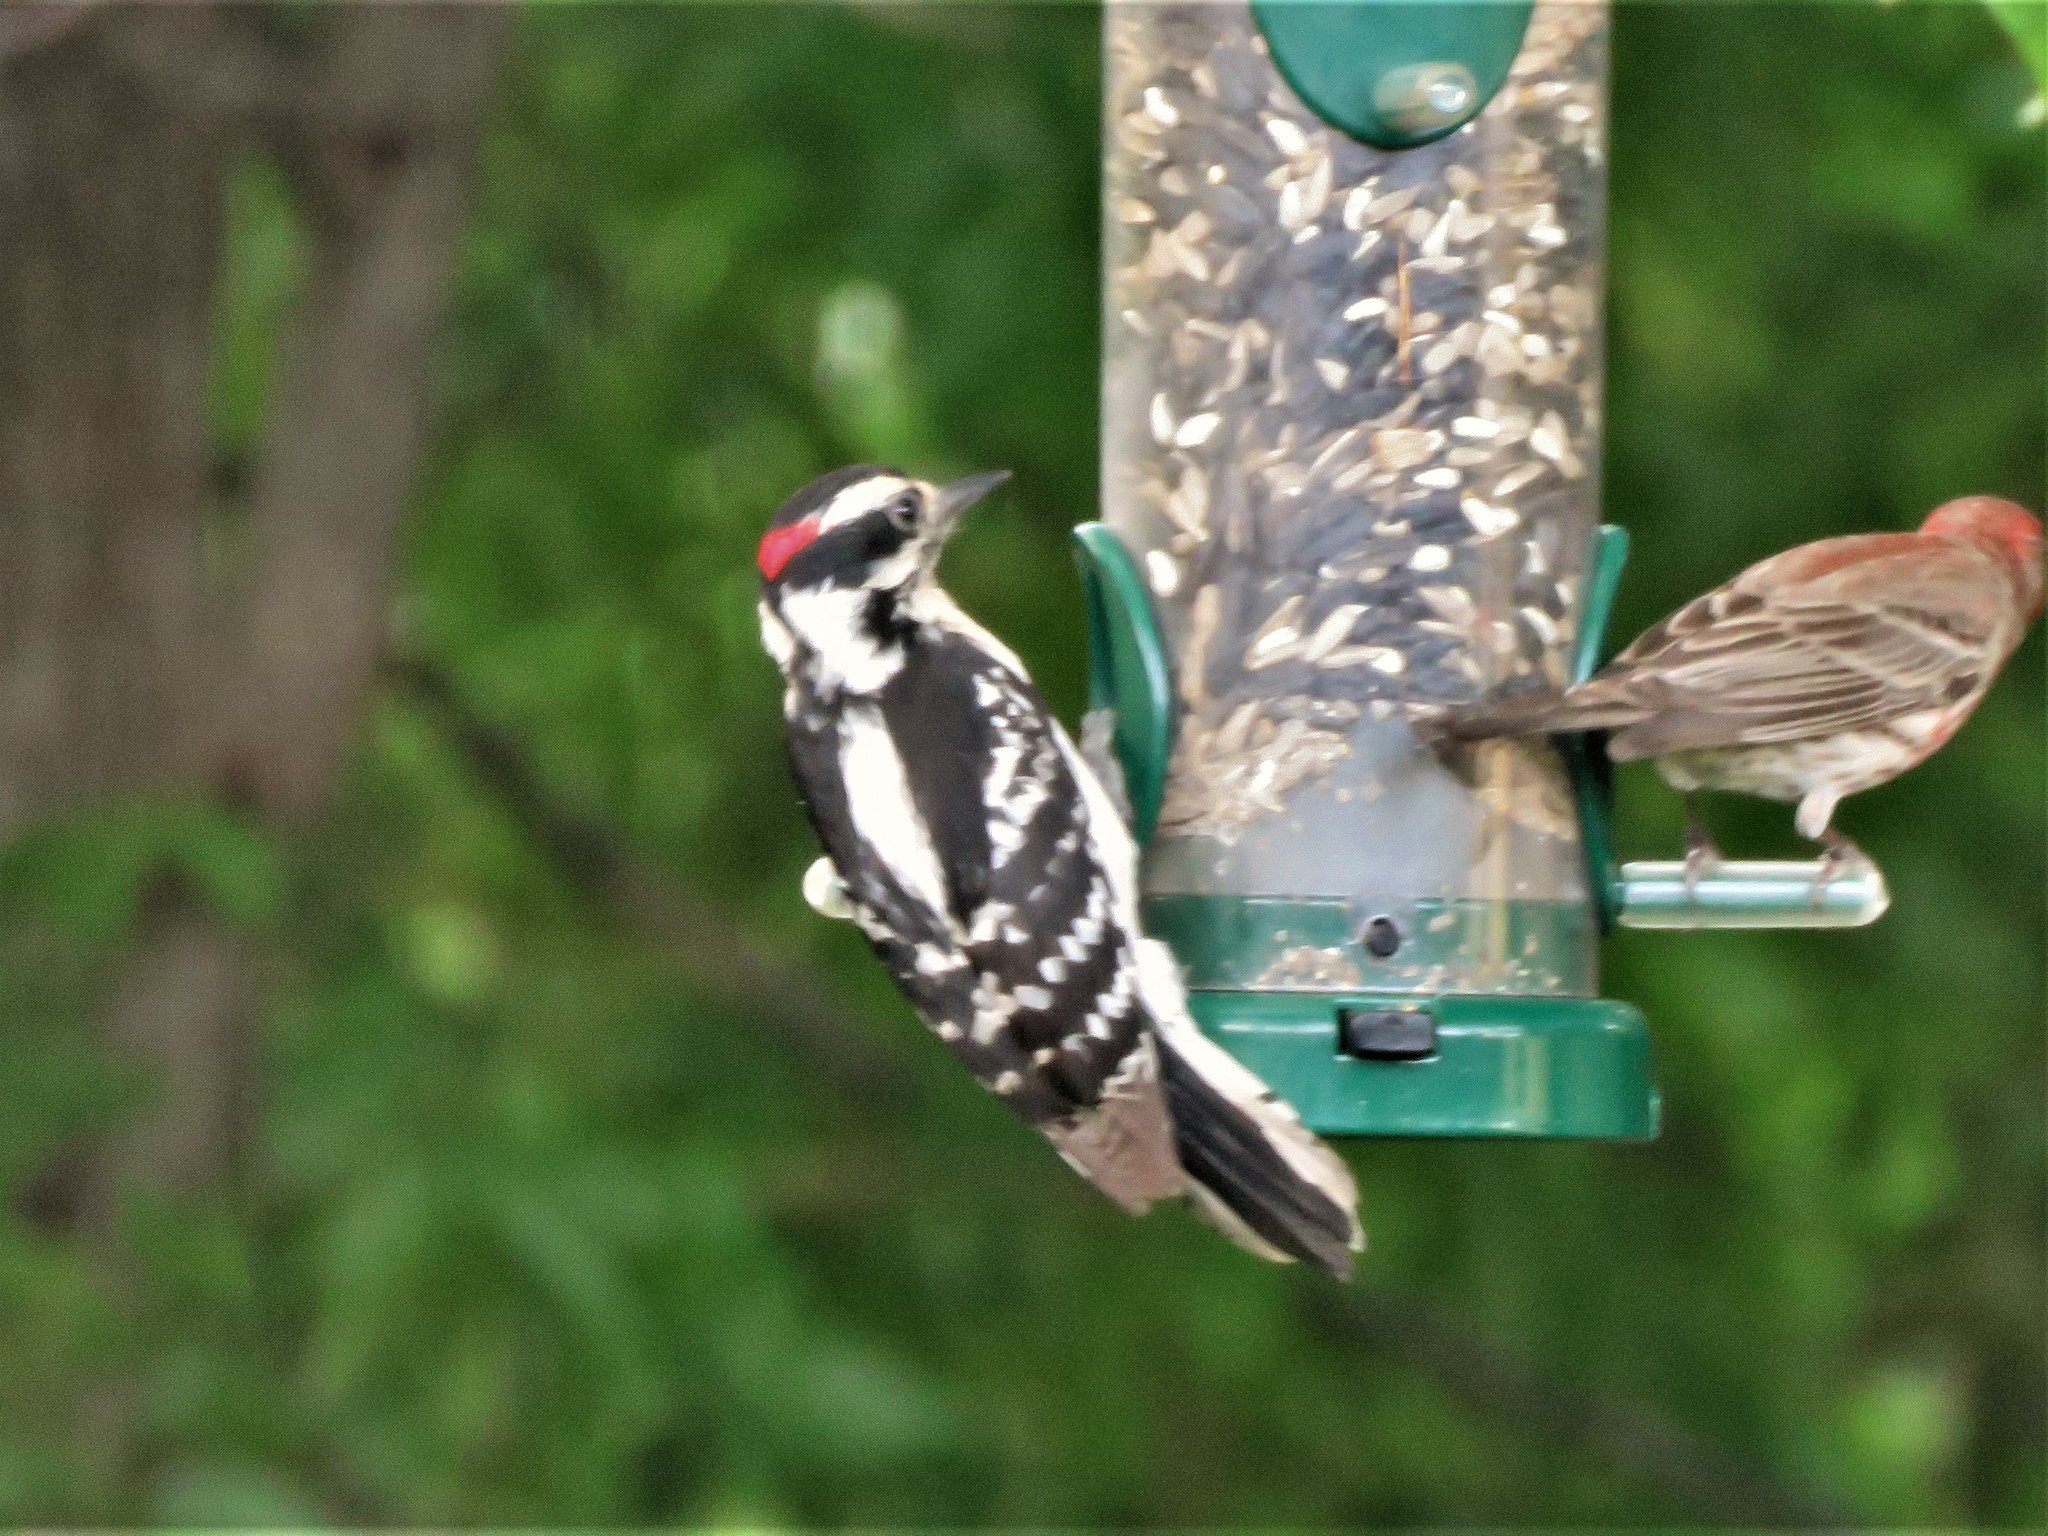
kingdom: Animalia
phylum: Chordata
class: Aves
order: Piciformes
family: Picidae
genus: Dryobates
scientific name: Dryobates pubescens
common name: Downy woodpecker
